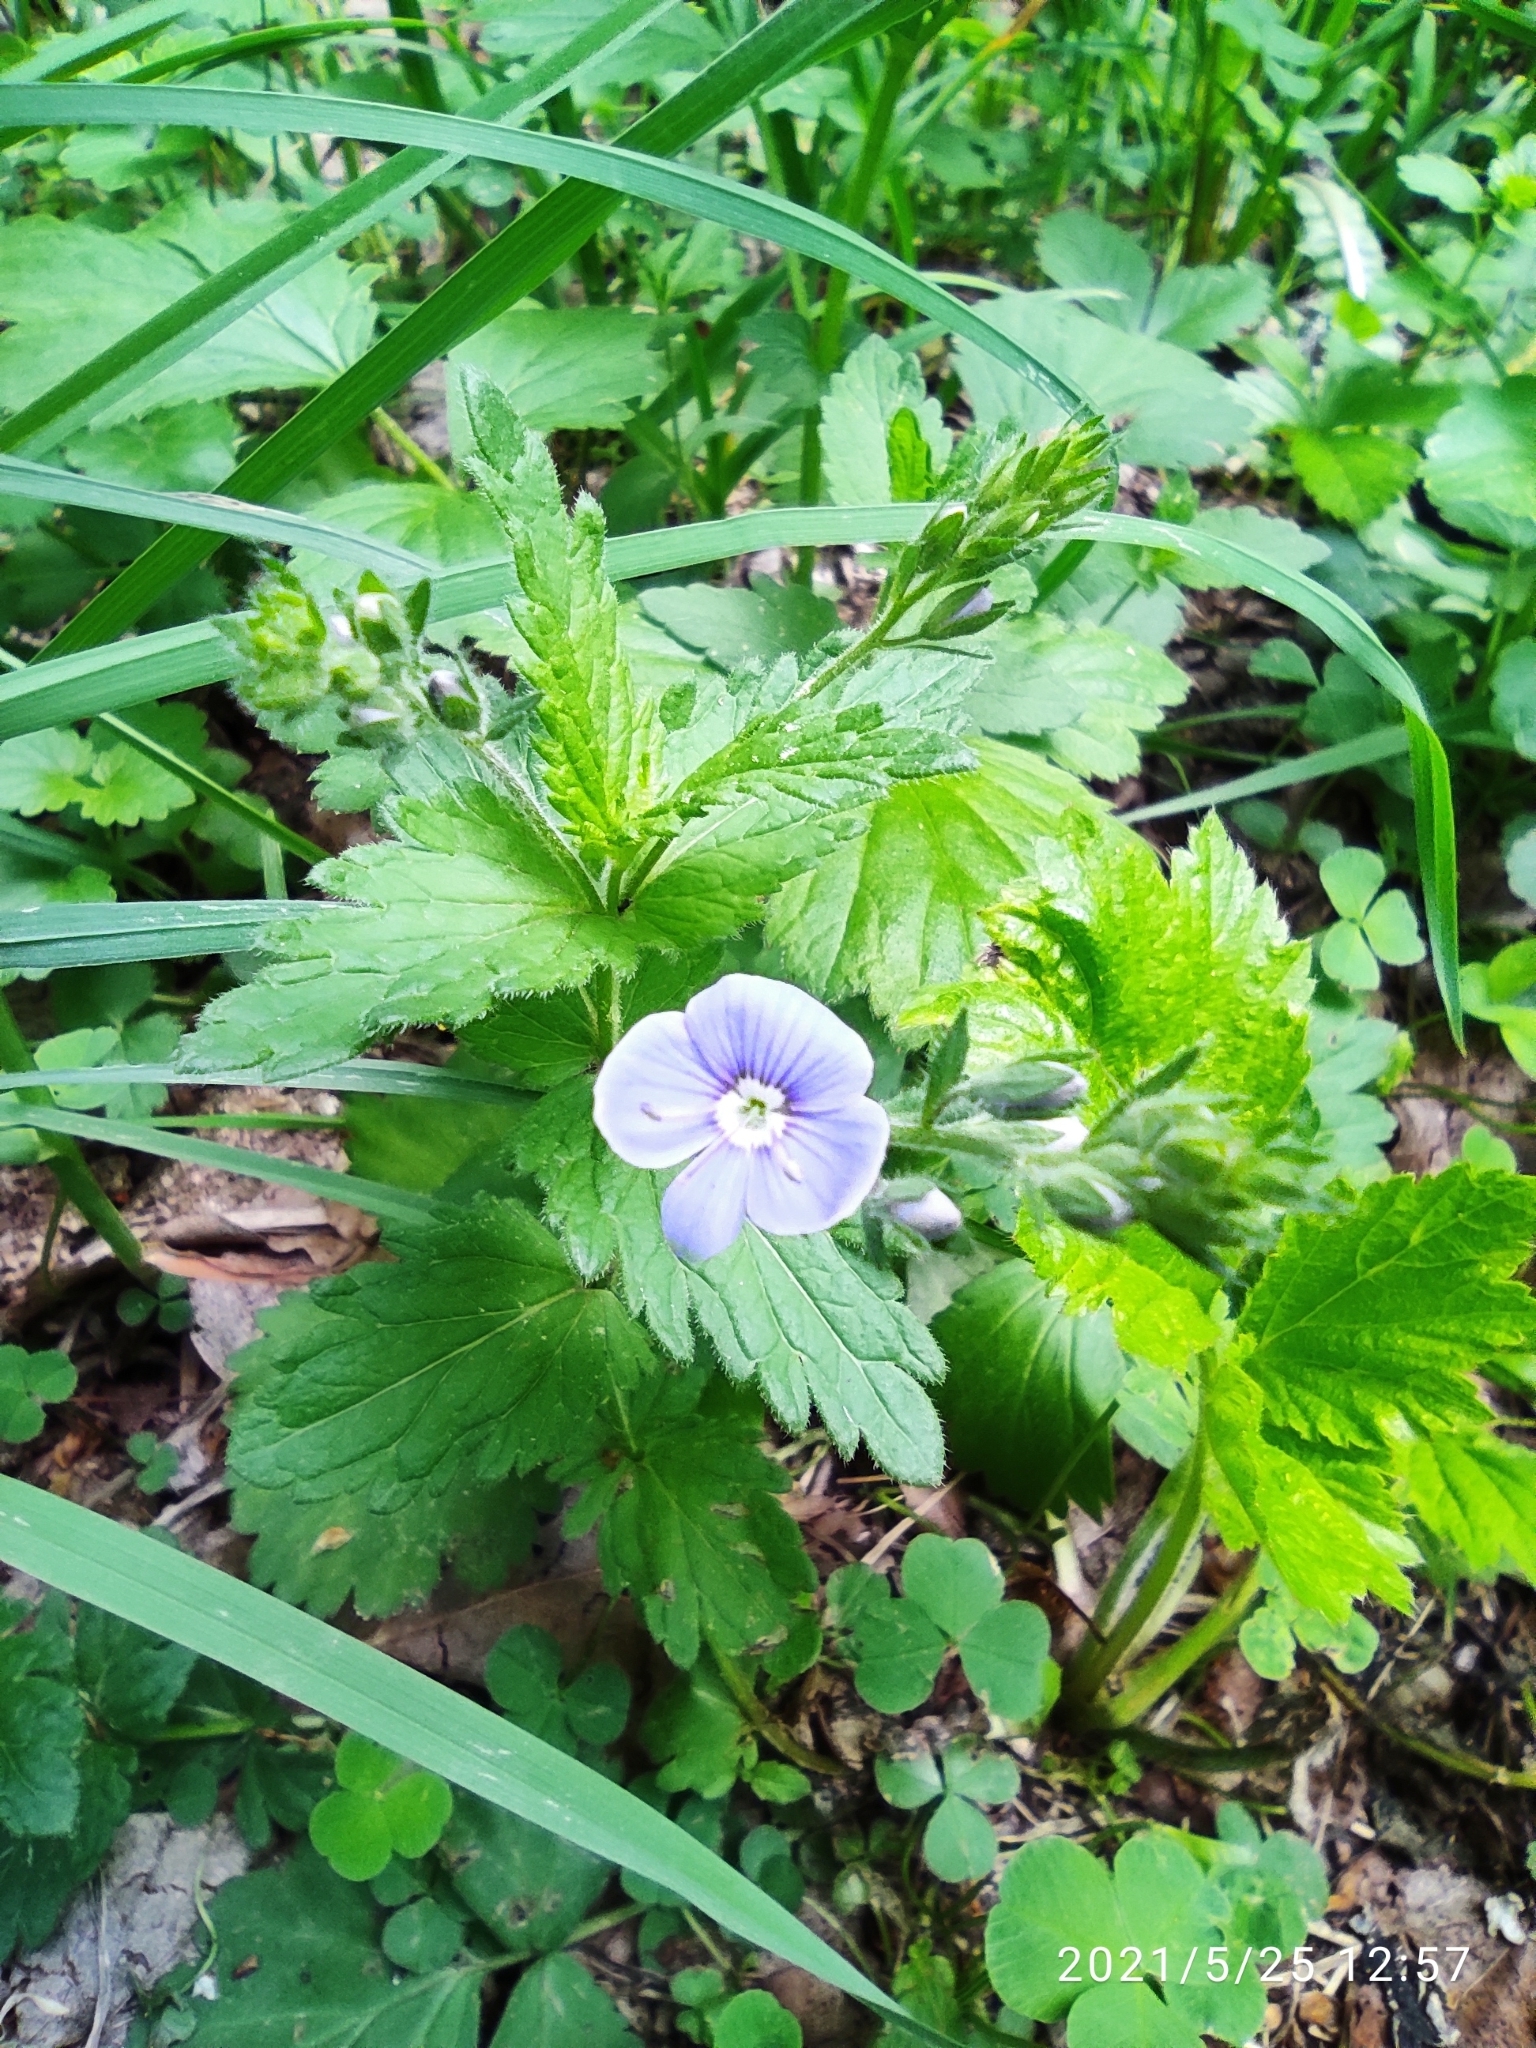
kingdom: Plantae
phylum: Tracheophyta
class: Magnoliopsida
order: Lamiales
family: Plantaginaceae
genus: Veronica
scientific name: Veronica chamaedrys
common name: Germander speedwell
